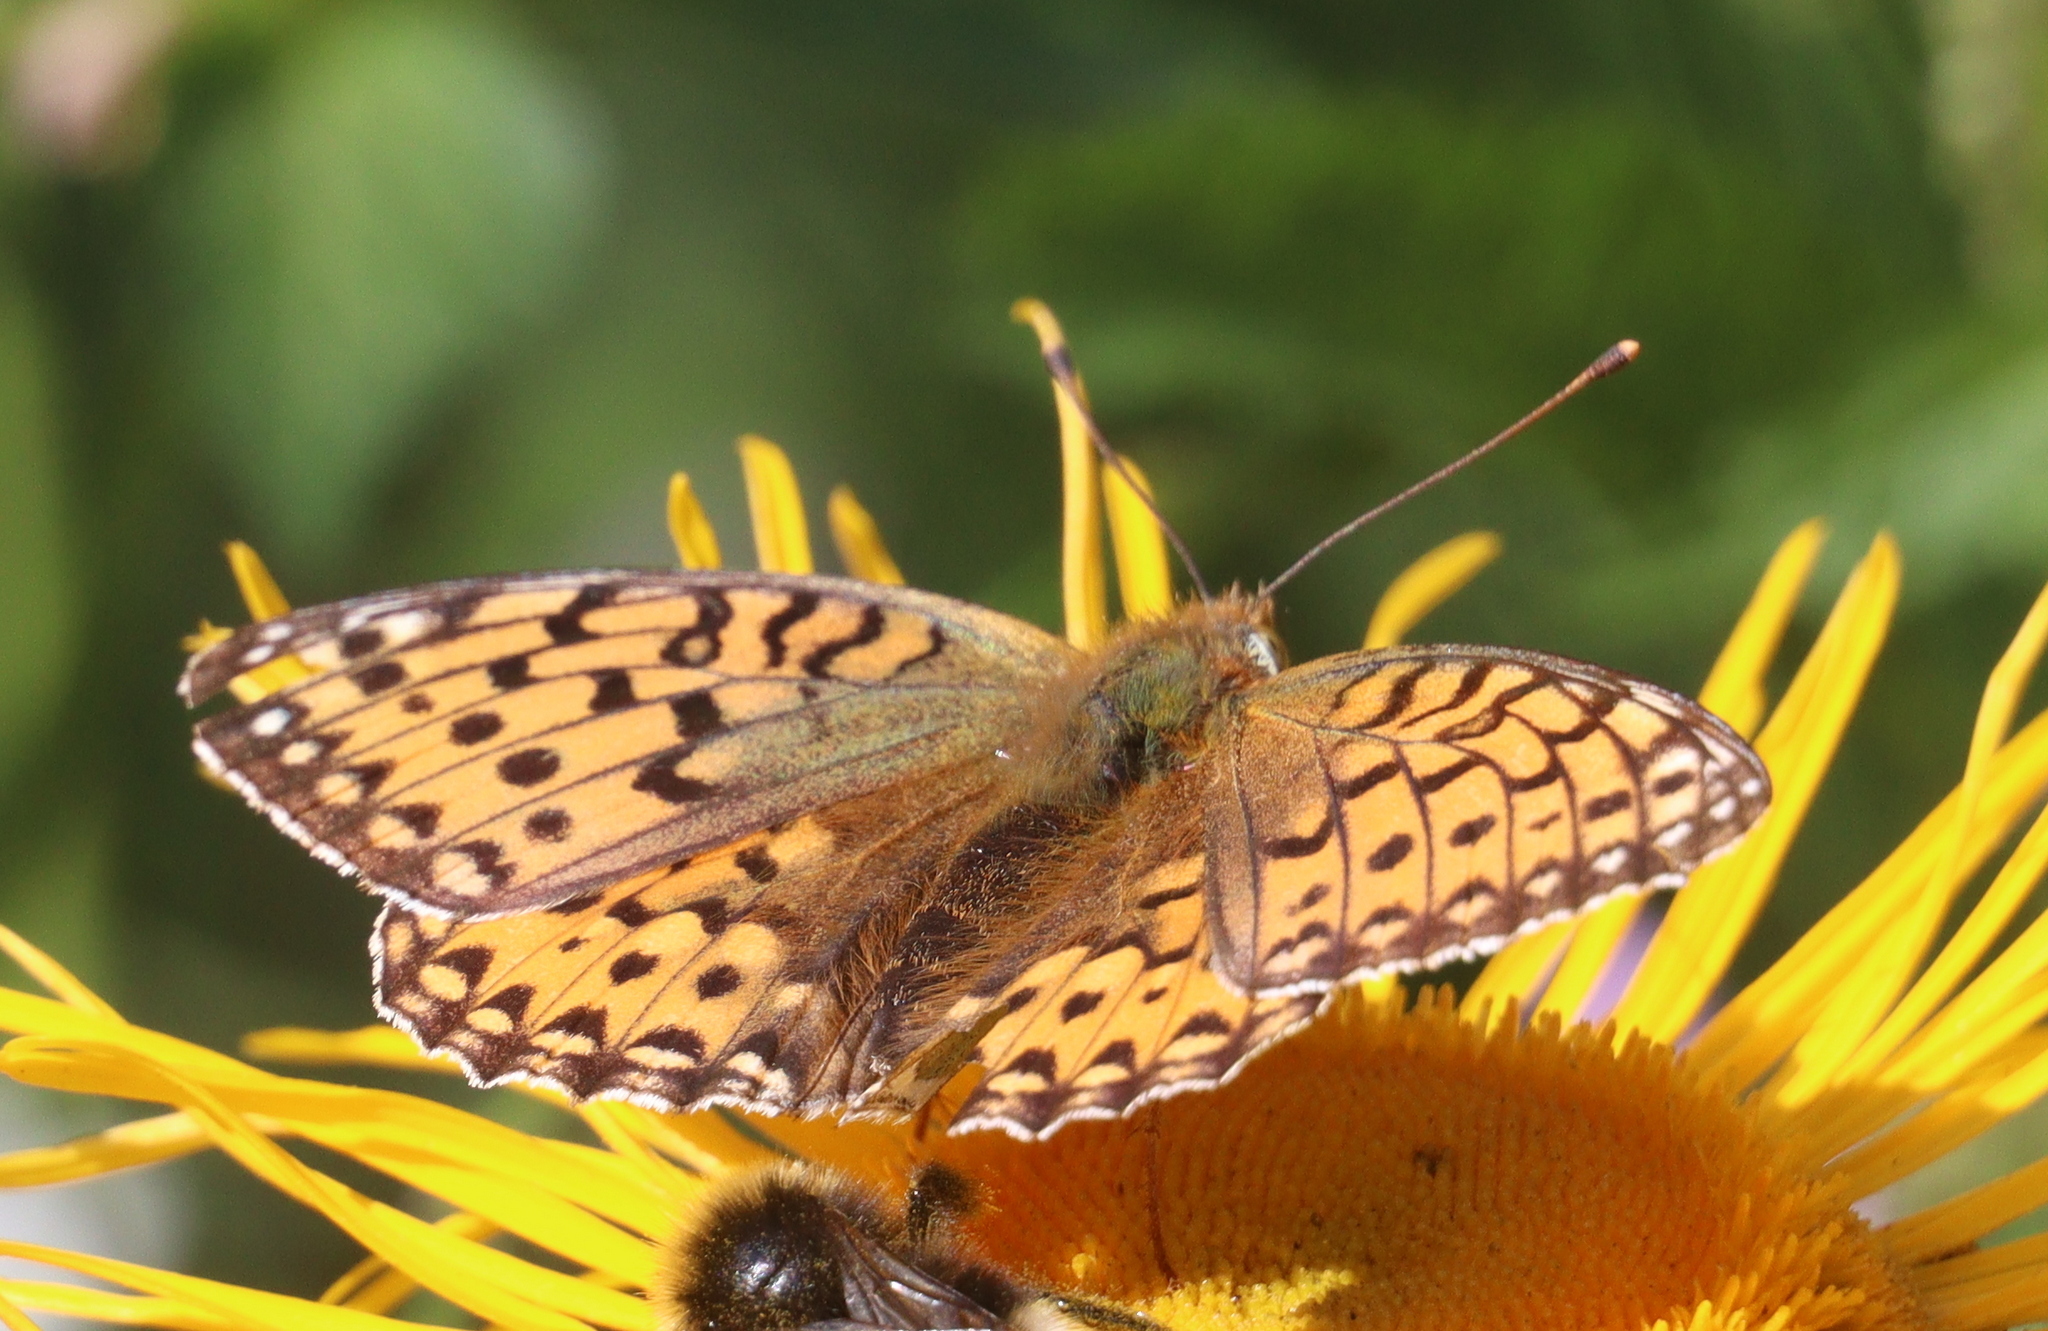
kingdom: Animalia
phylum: Arthropoda
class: Insecta
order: Lepidoptera
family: Nymphalidae
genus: Speyeria
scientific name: Speyeria aglaja
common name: Dark green fritillary
